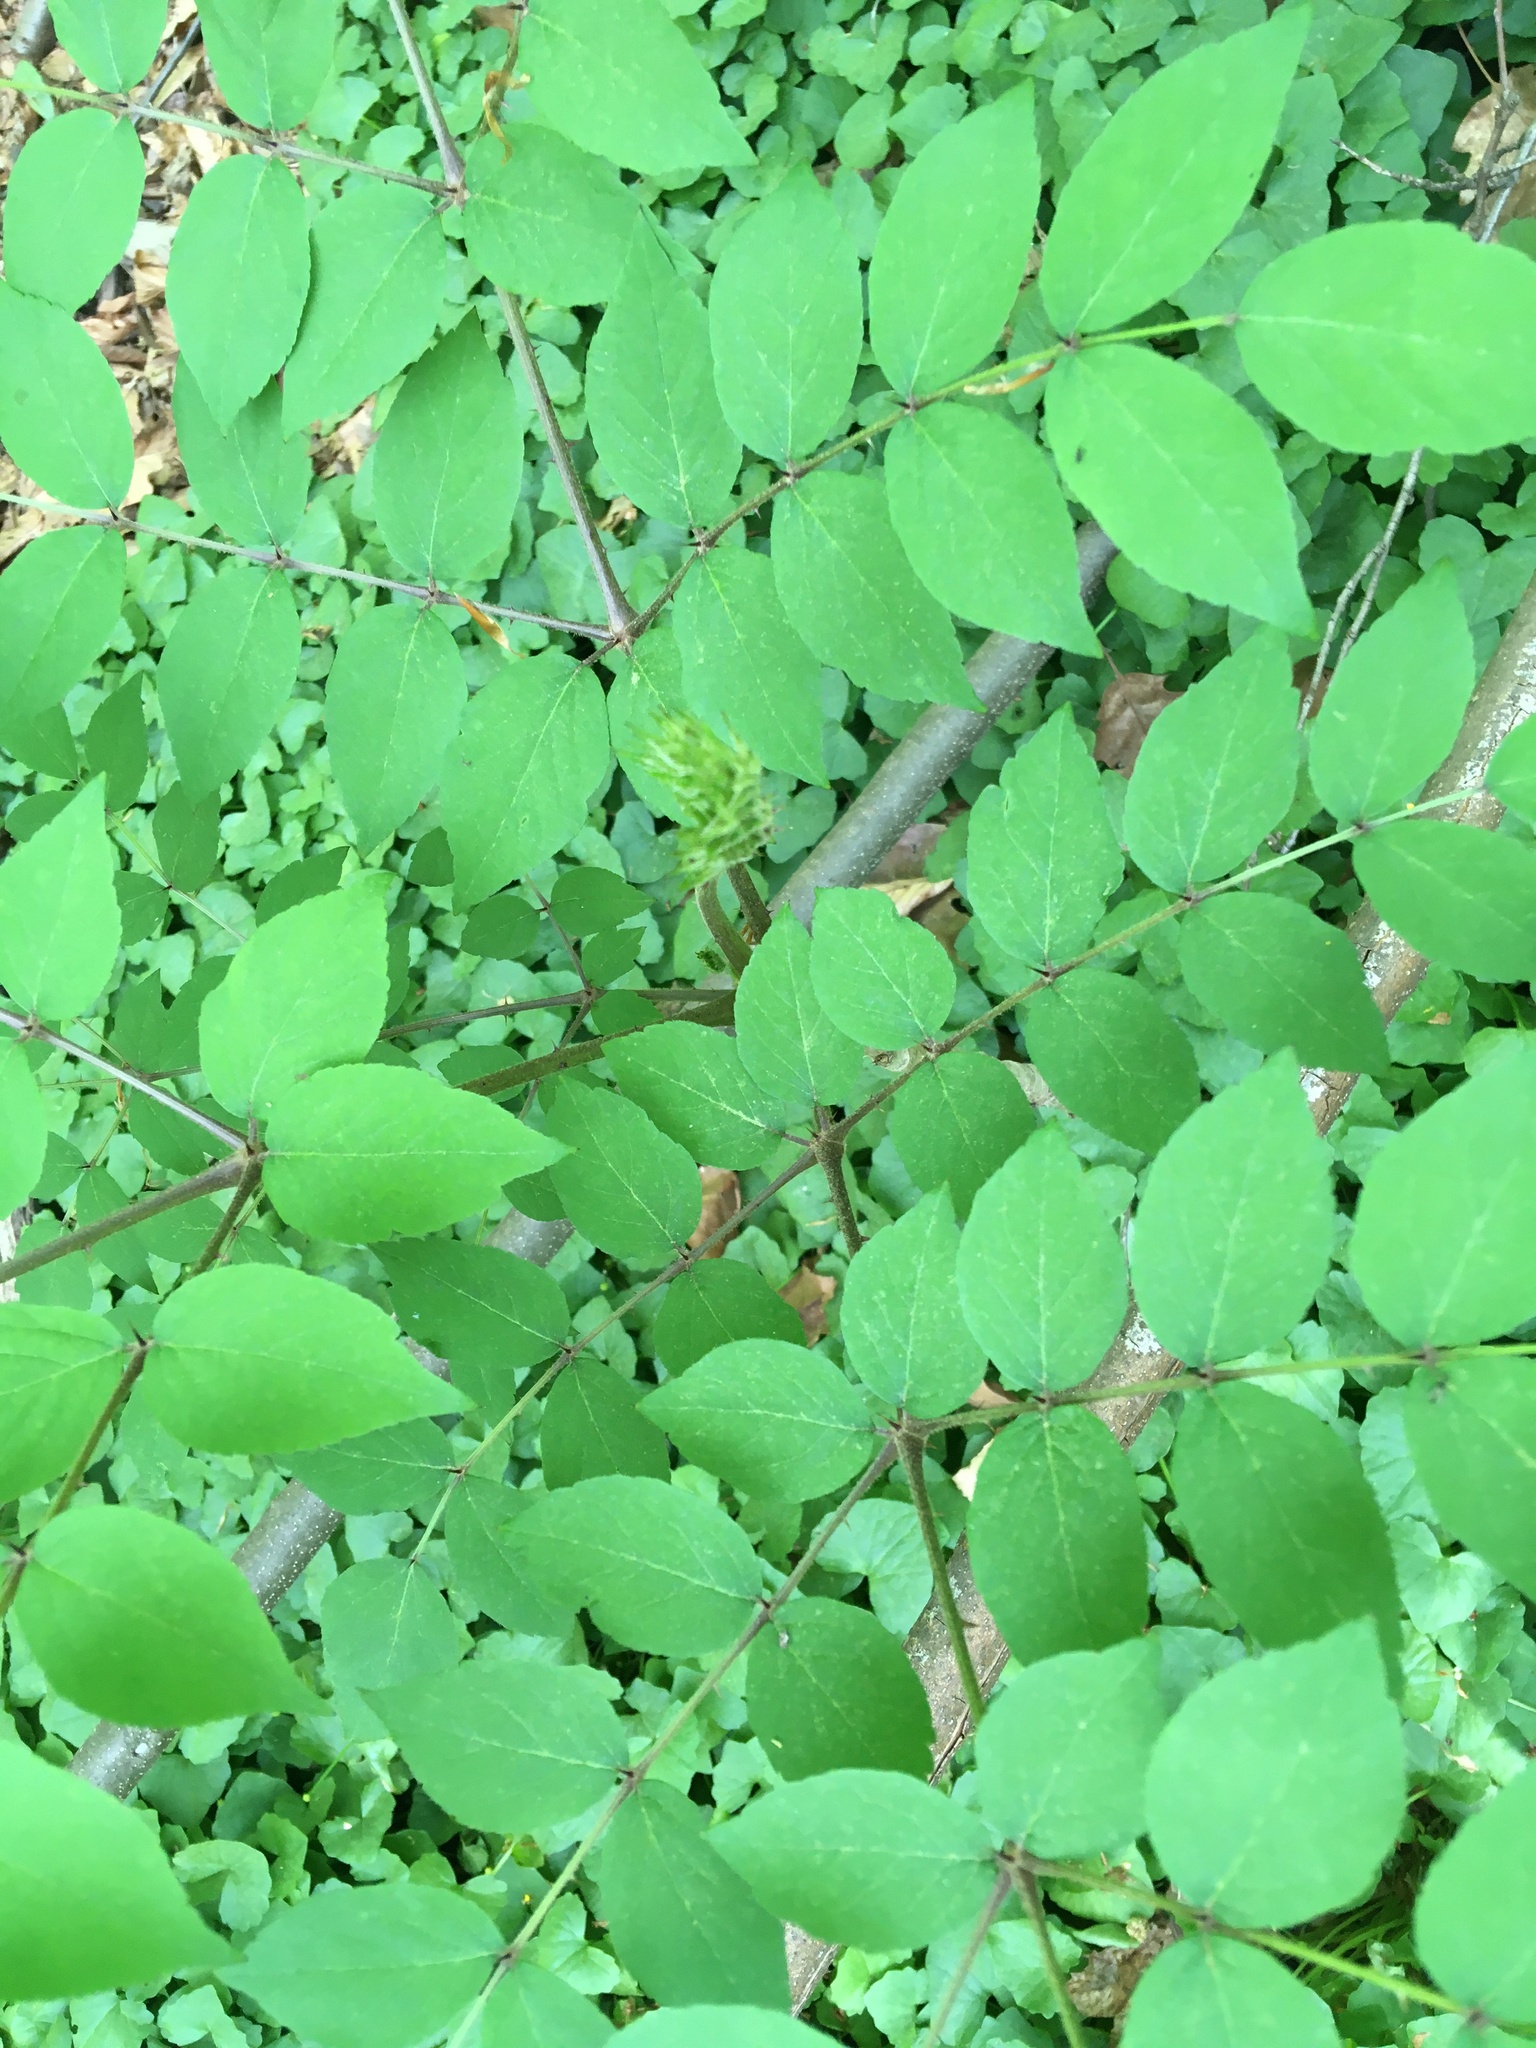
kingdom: Plantae
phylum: Tracheophyta
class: Magnoliopsida
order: Apiales
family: Araliaceae
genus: Aralia
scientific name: Aralia elata
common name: Japanese angelica-tree
